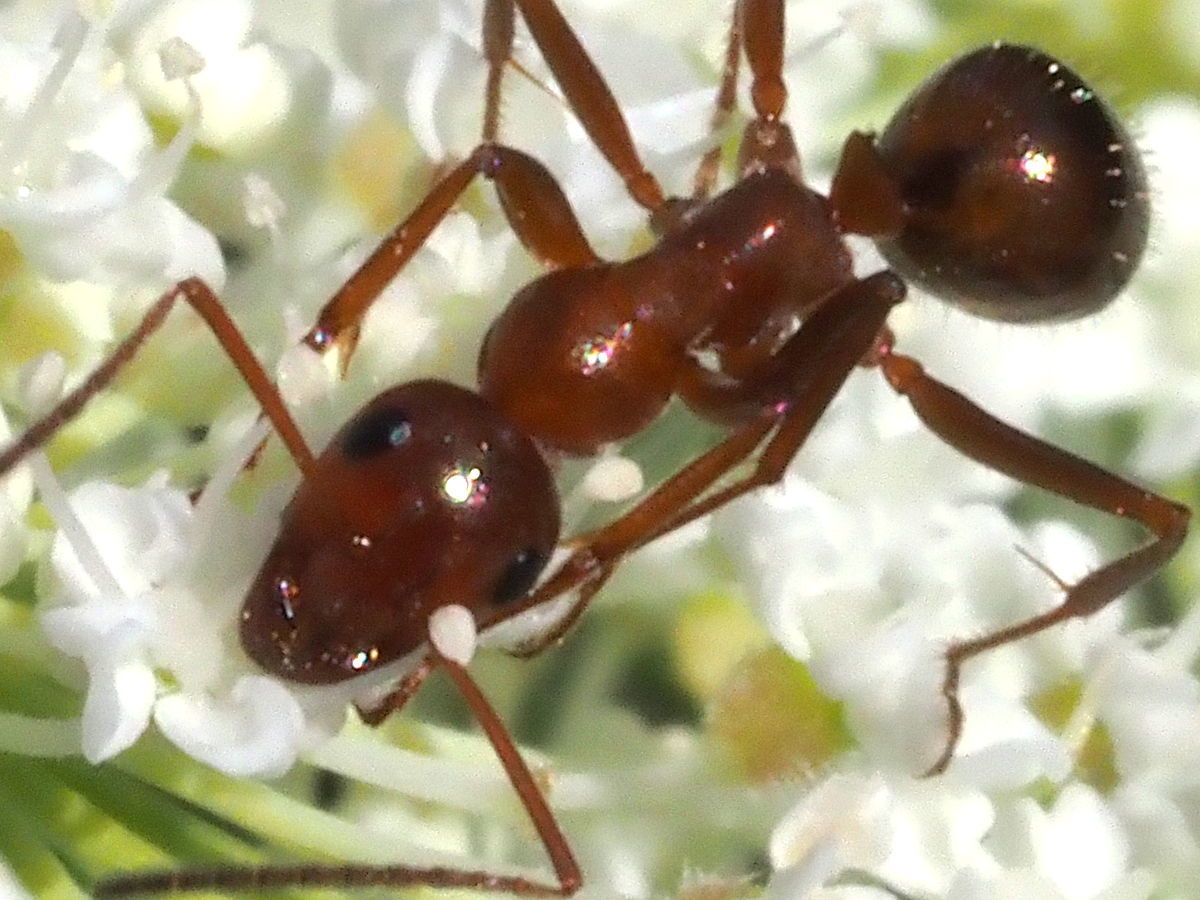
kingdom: Animalia
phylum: Arthropoda
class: Insecta
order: Hymenoptera
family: Formicidae
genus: Formica
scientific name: Formica pallidefulva
